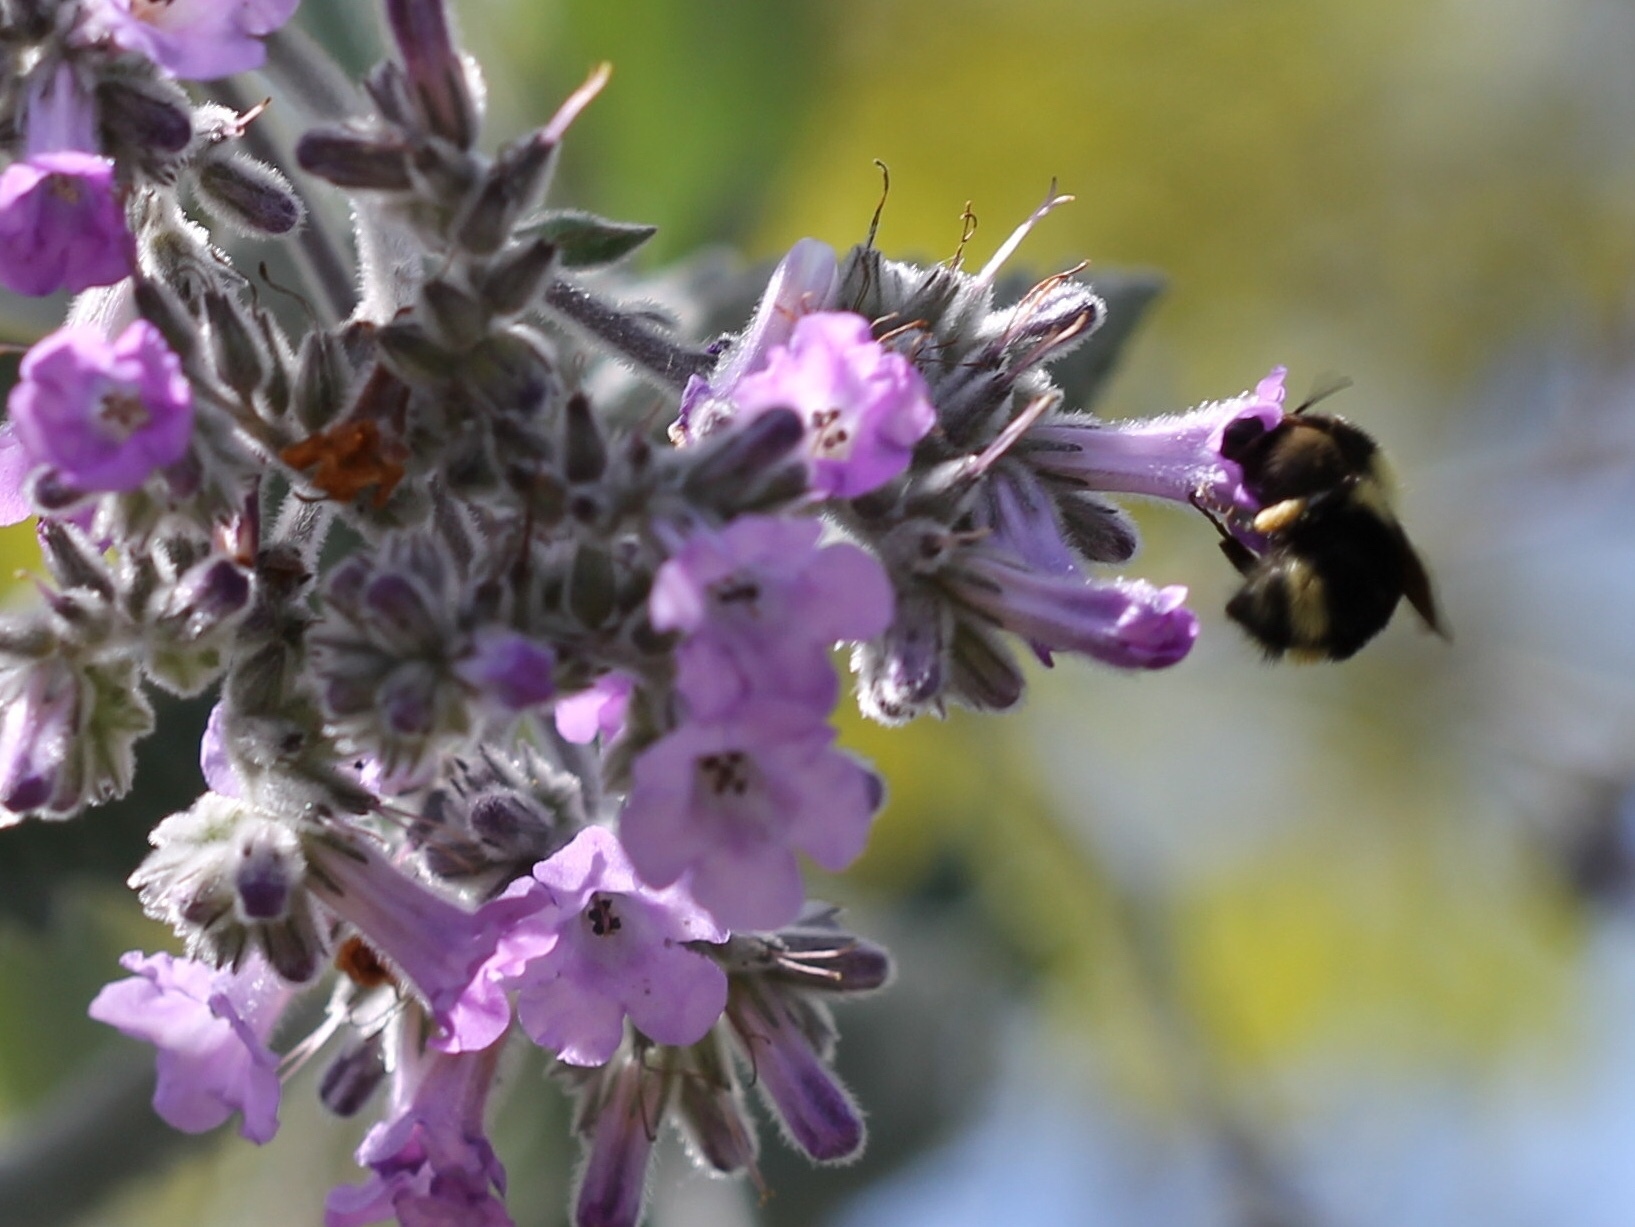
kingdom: Animalia
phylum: Arthropoda
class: Insecta
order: Hymenoptera
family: Apidae
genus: Bombus
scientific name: Bombus melanopygus
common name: Black tail bumble bee
